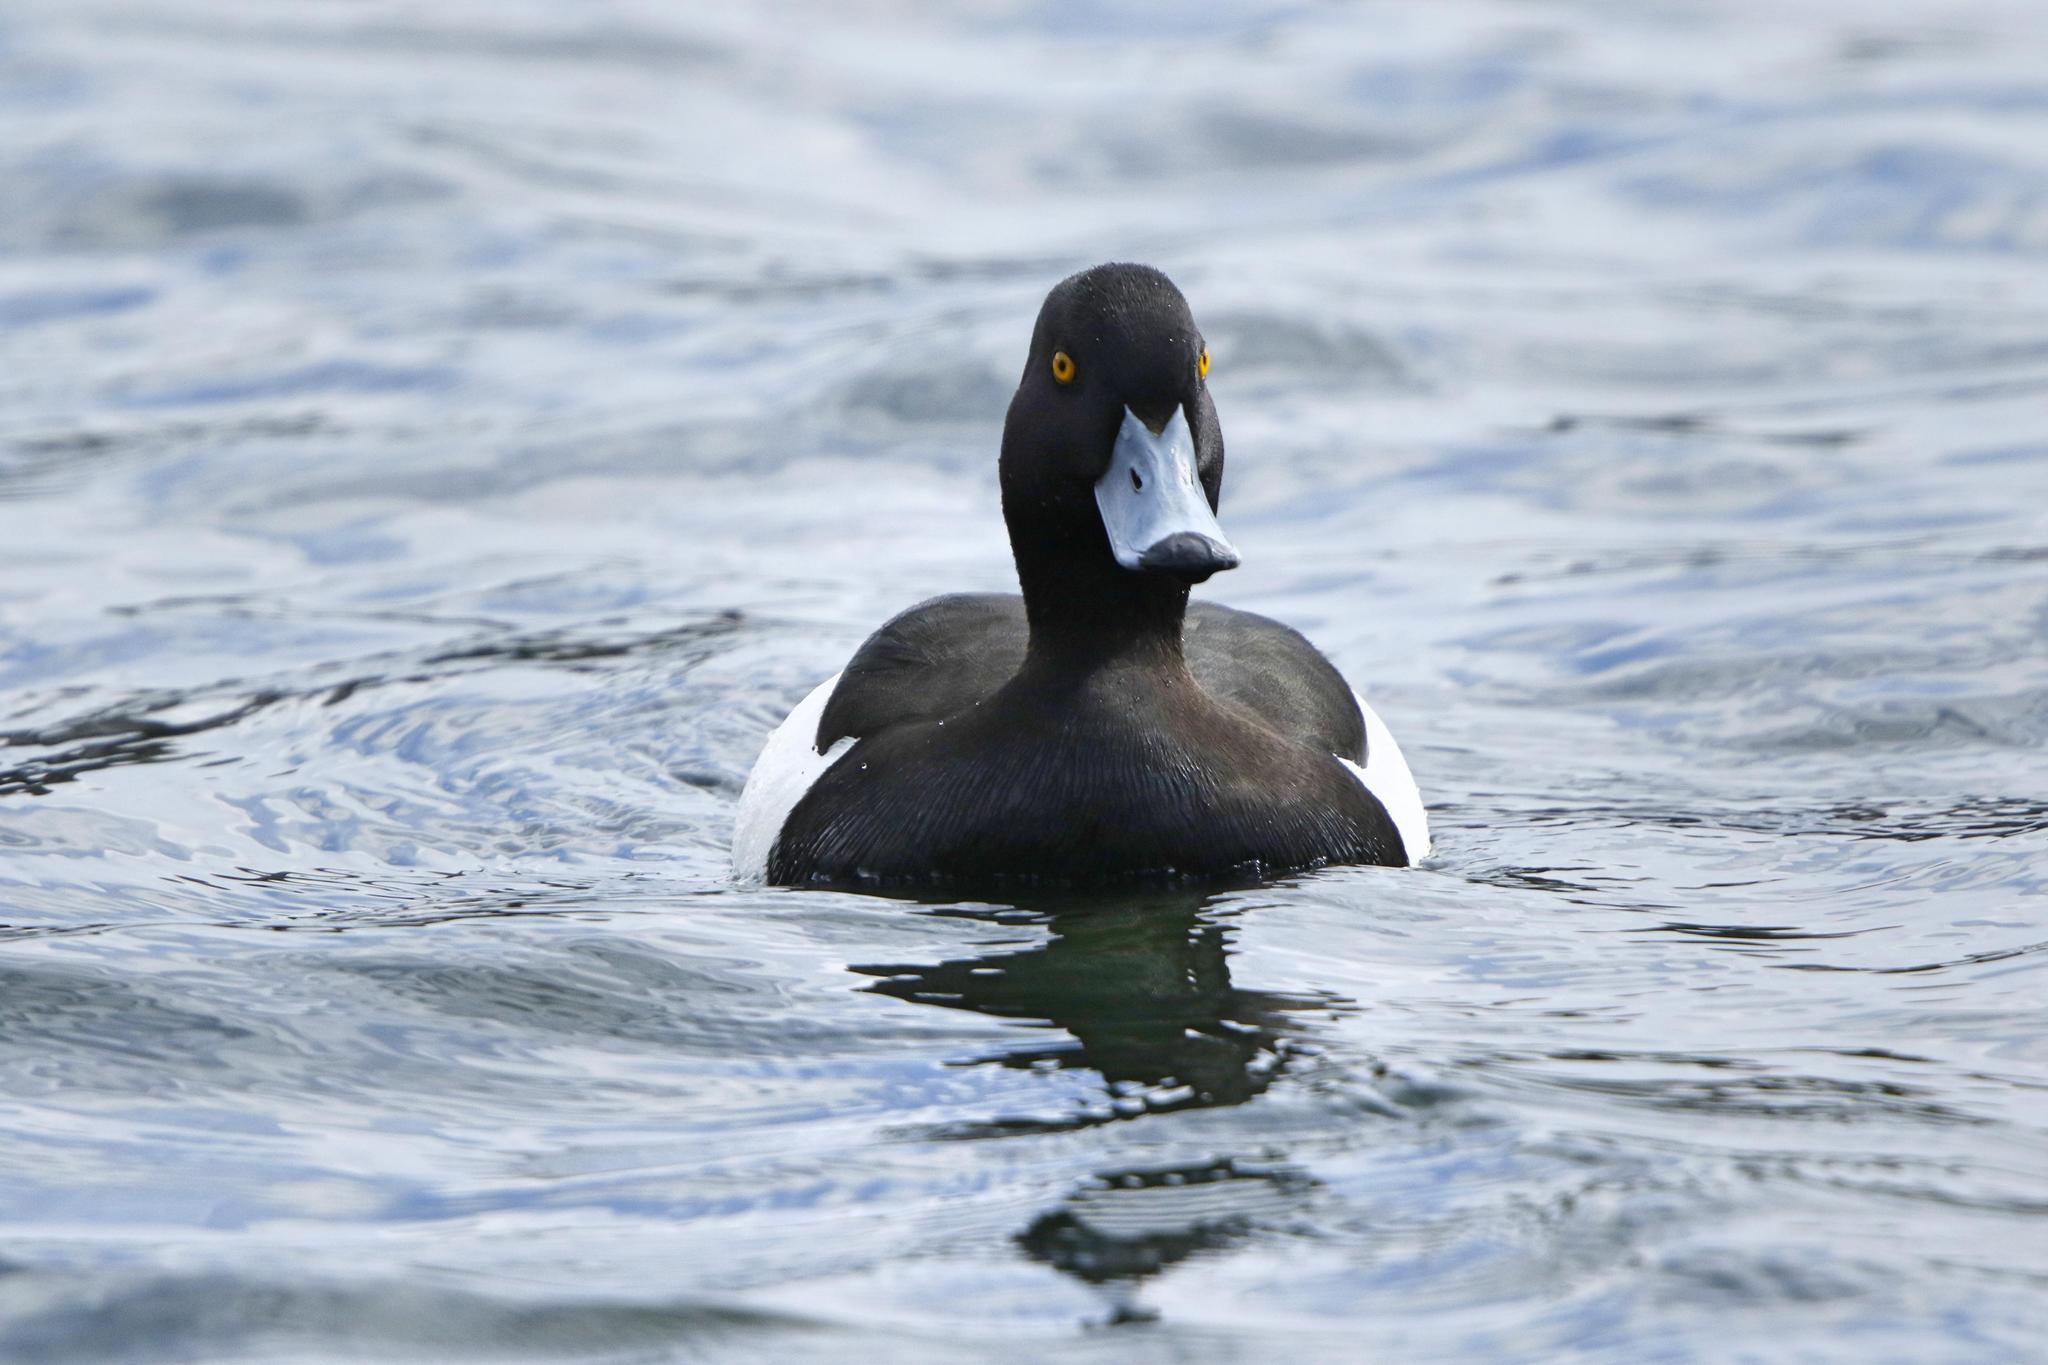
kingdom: Animalia
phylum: Chordata
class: Aves
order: Anseriformes
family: Anatidae
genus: Aythya
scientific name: Aythya fuligula
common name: Tufted duck
